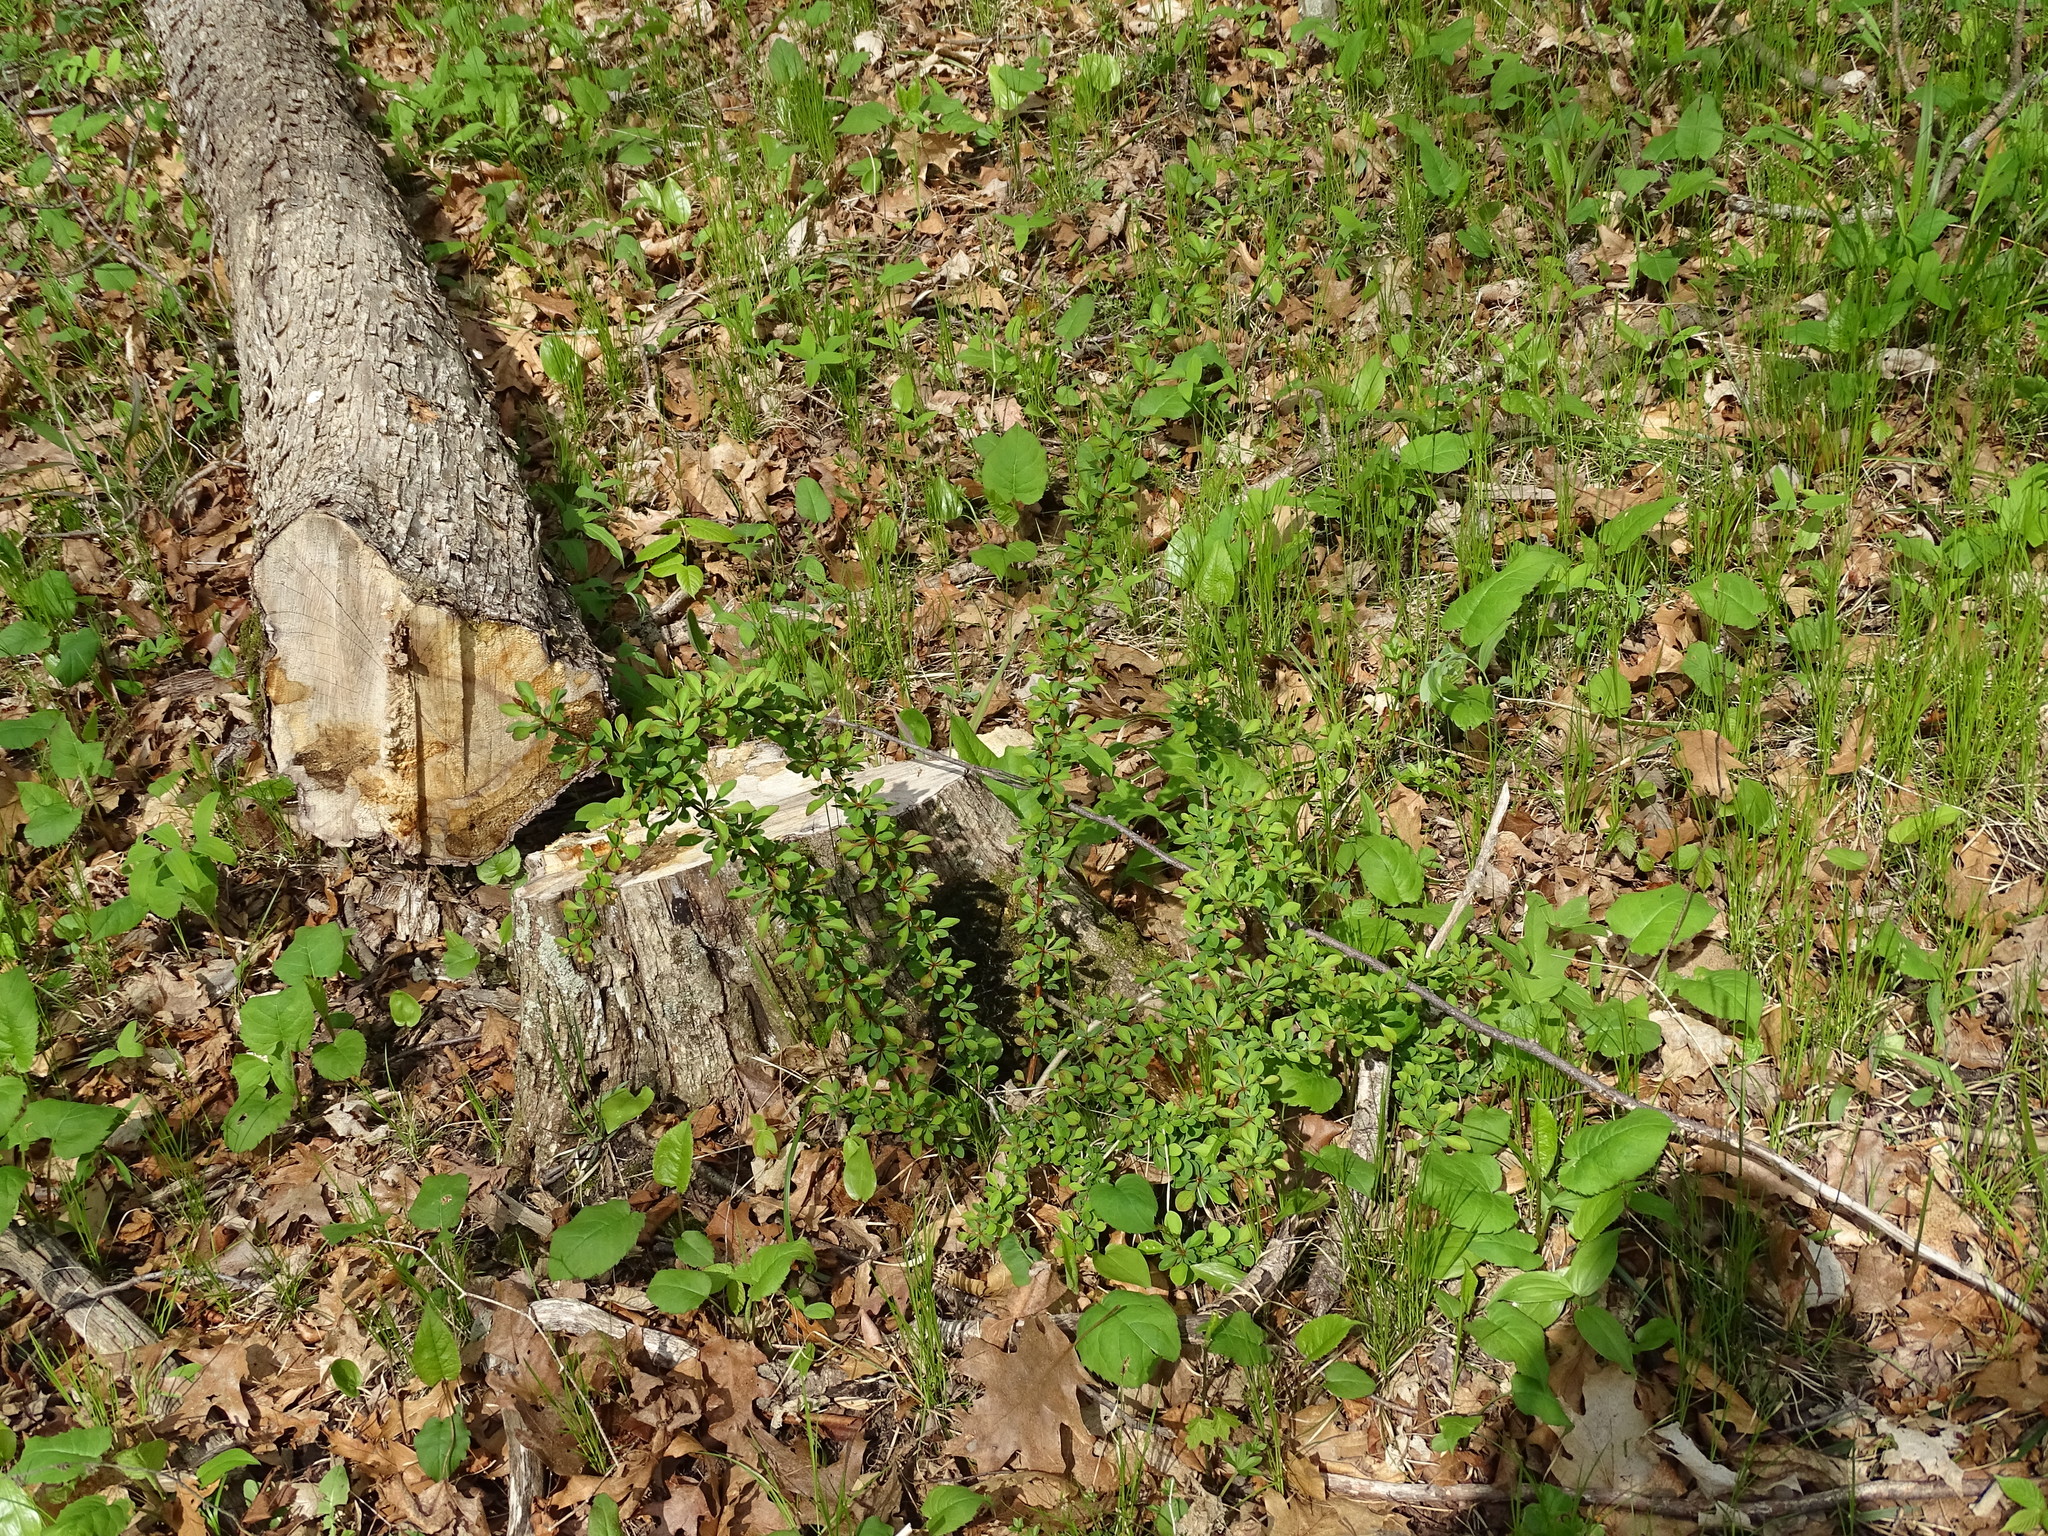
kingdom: Plantae
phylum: Tracheophyta
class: Magnoliopsida
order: Ranunculales
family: Berberidaceae
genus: Berberis
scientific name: Berberis thunbergii
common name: Japanese barberry
